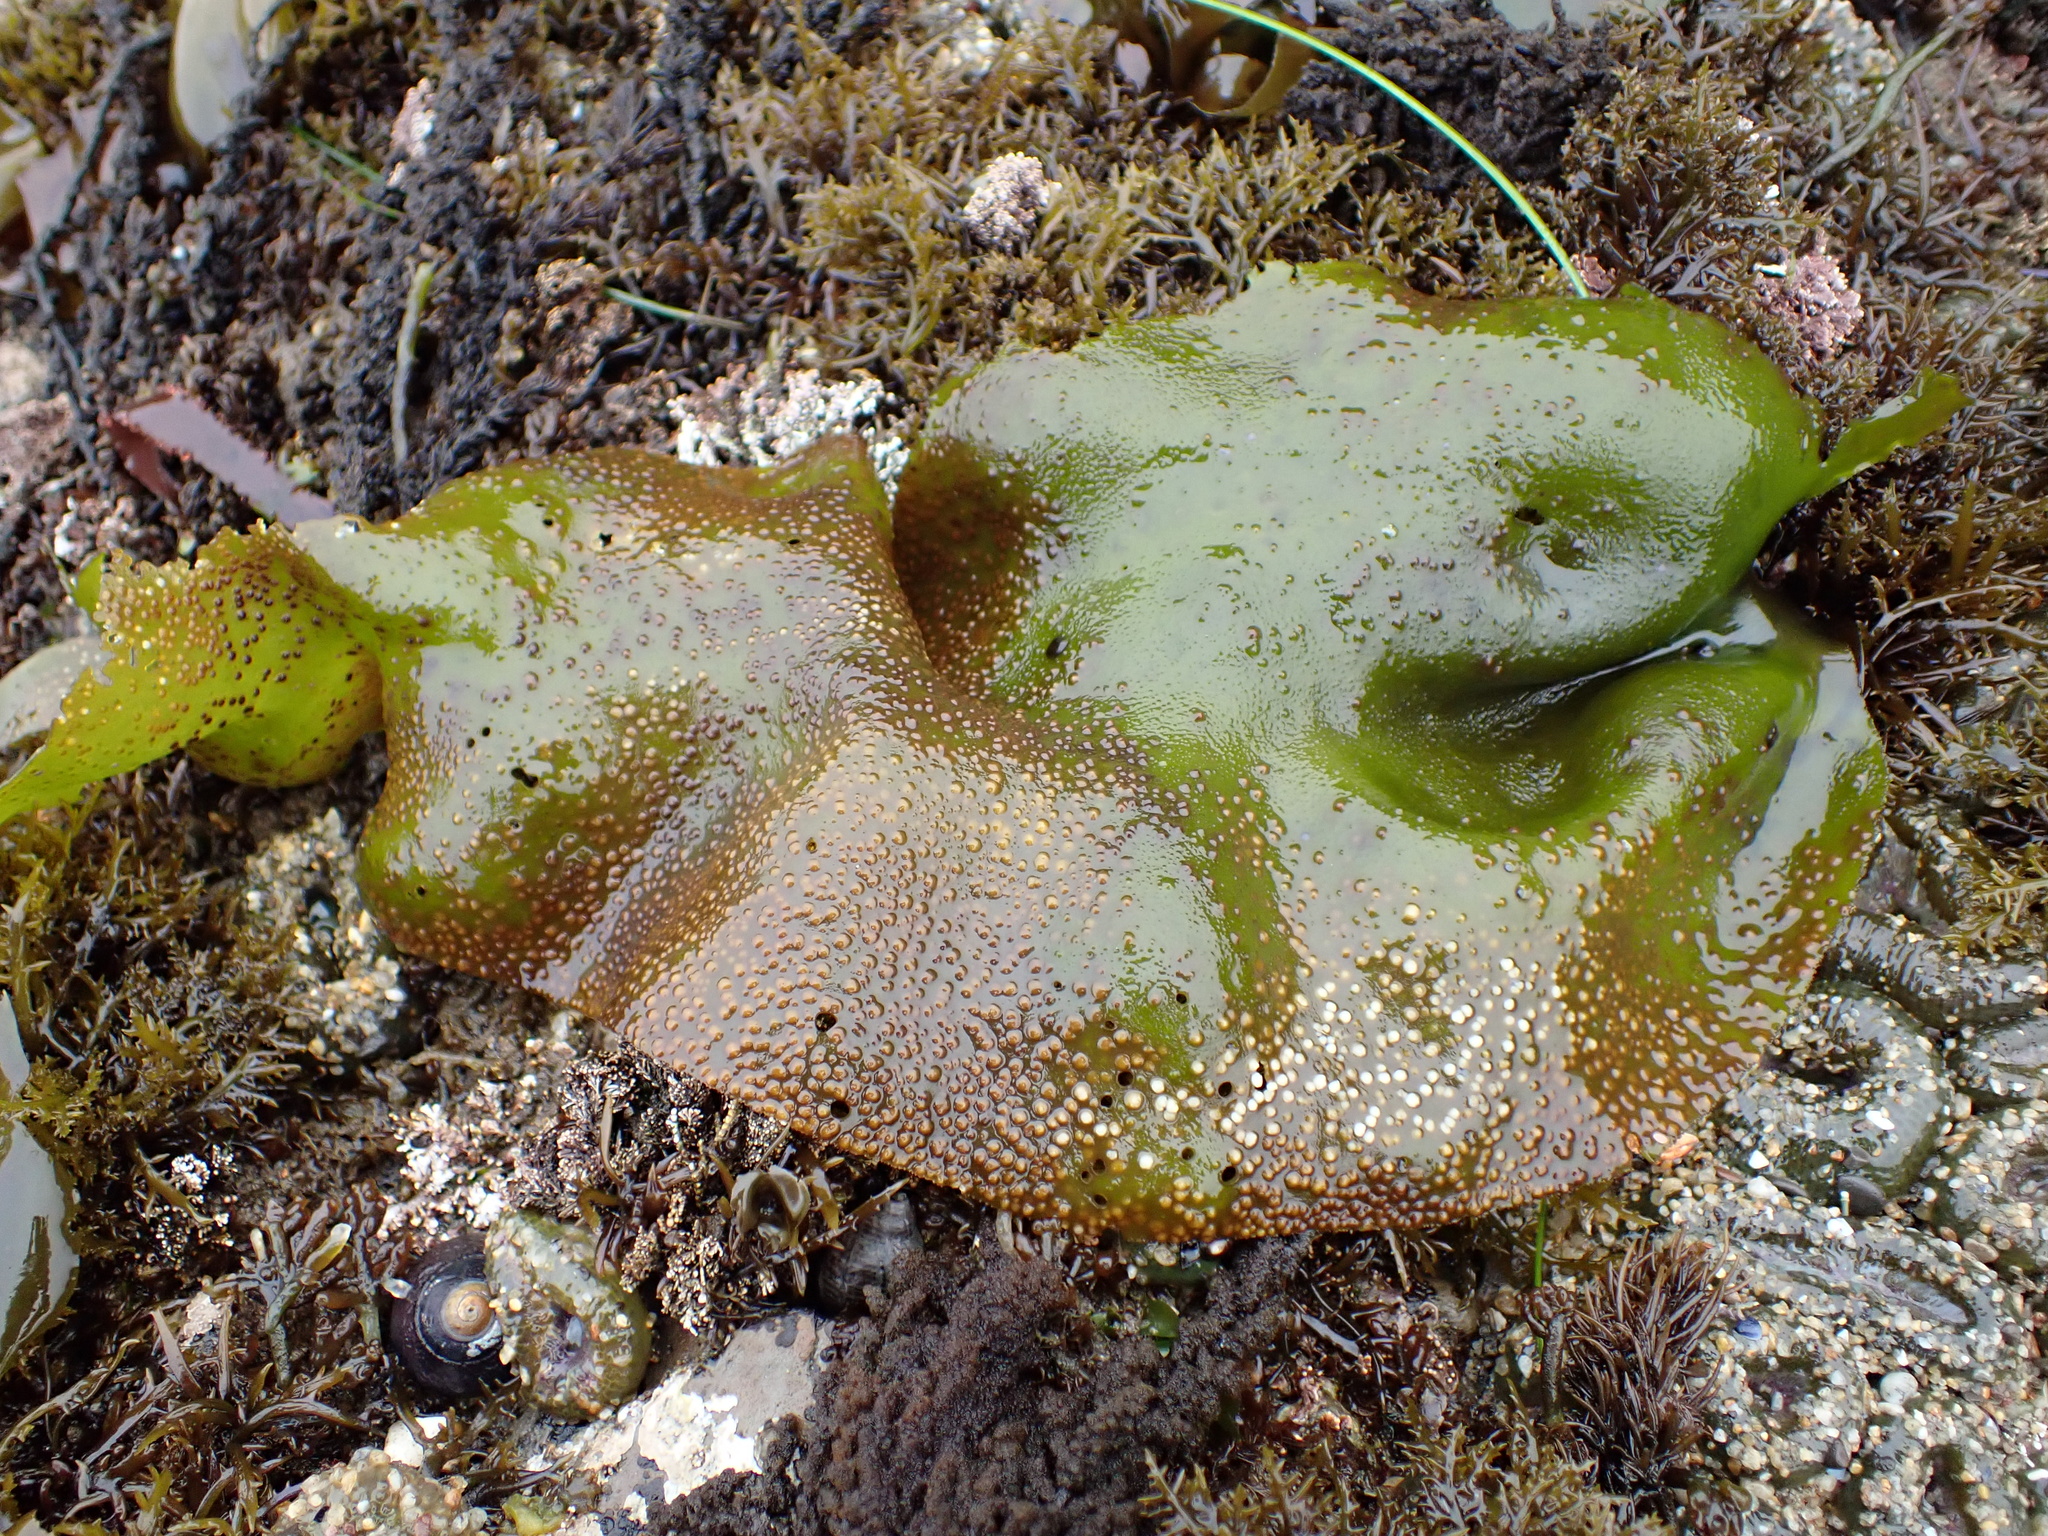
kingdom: Plantae
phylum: Rhodophyta
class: Florideophyceae
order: Gigartinales
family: Gigartinaceae
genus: Mazzaella
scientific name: Mazzaella flaccida
